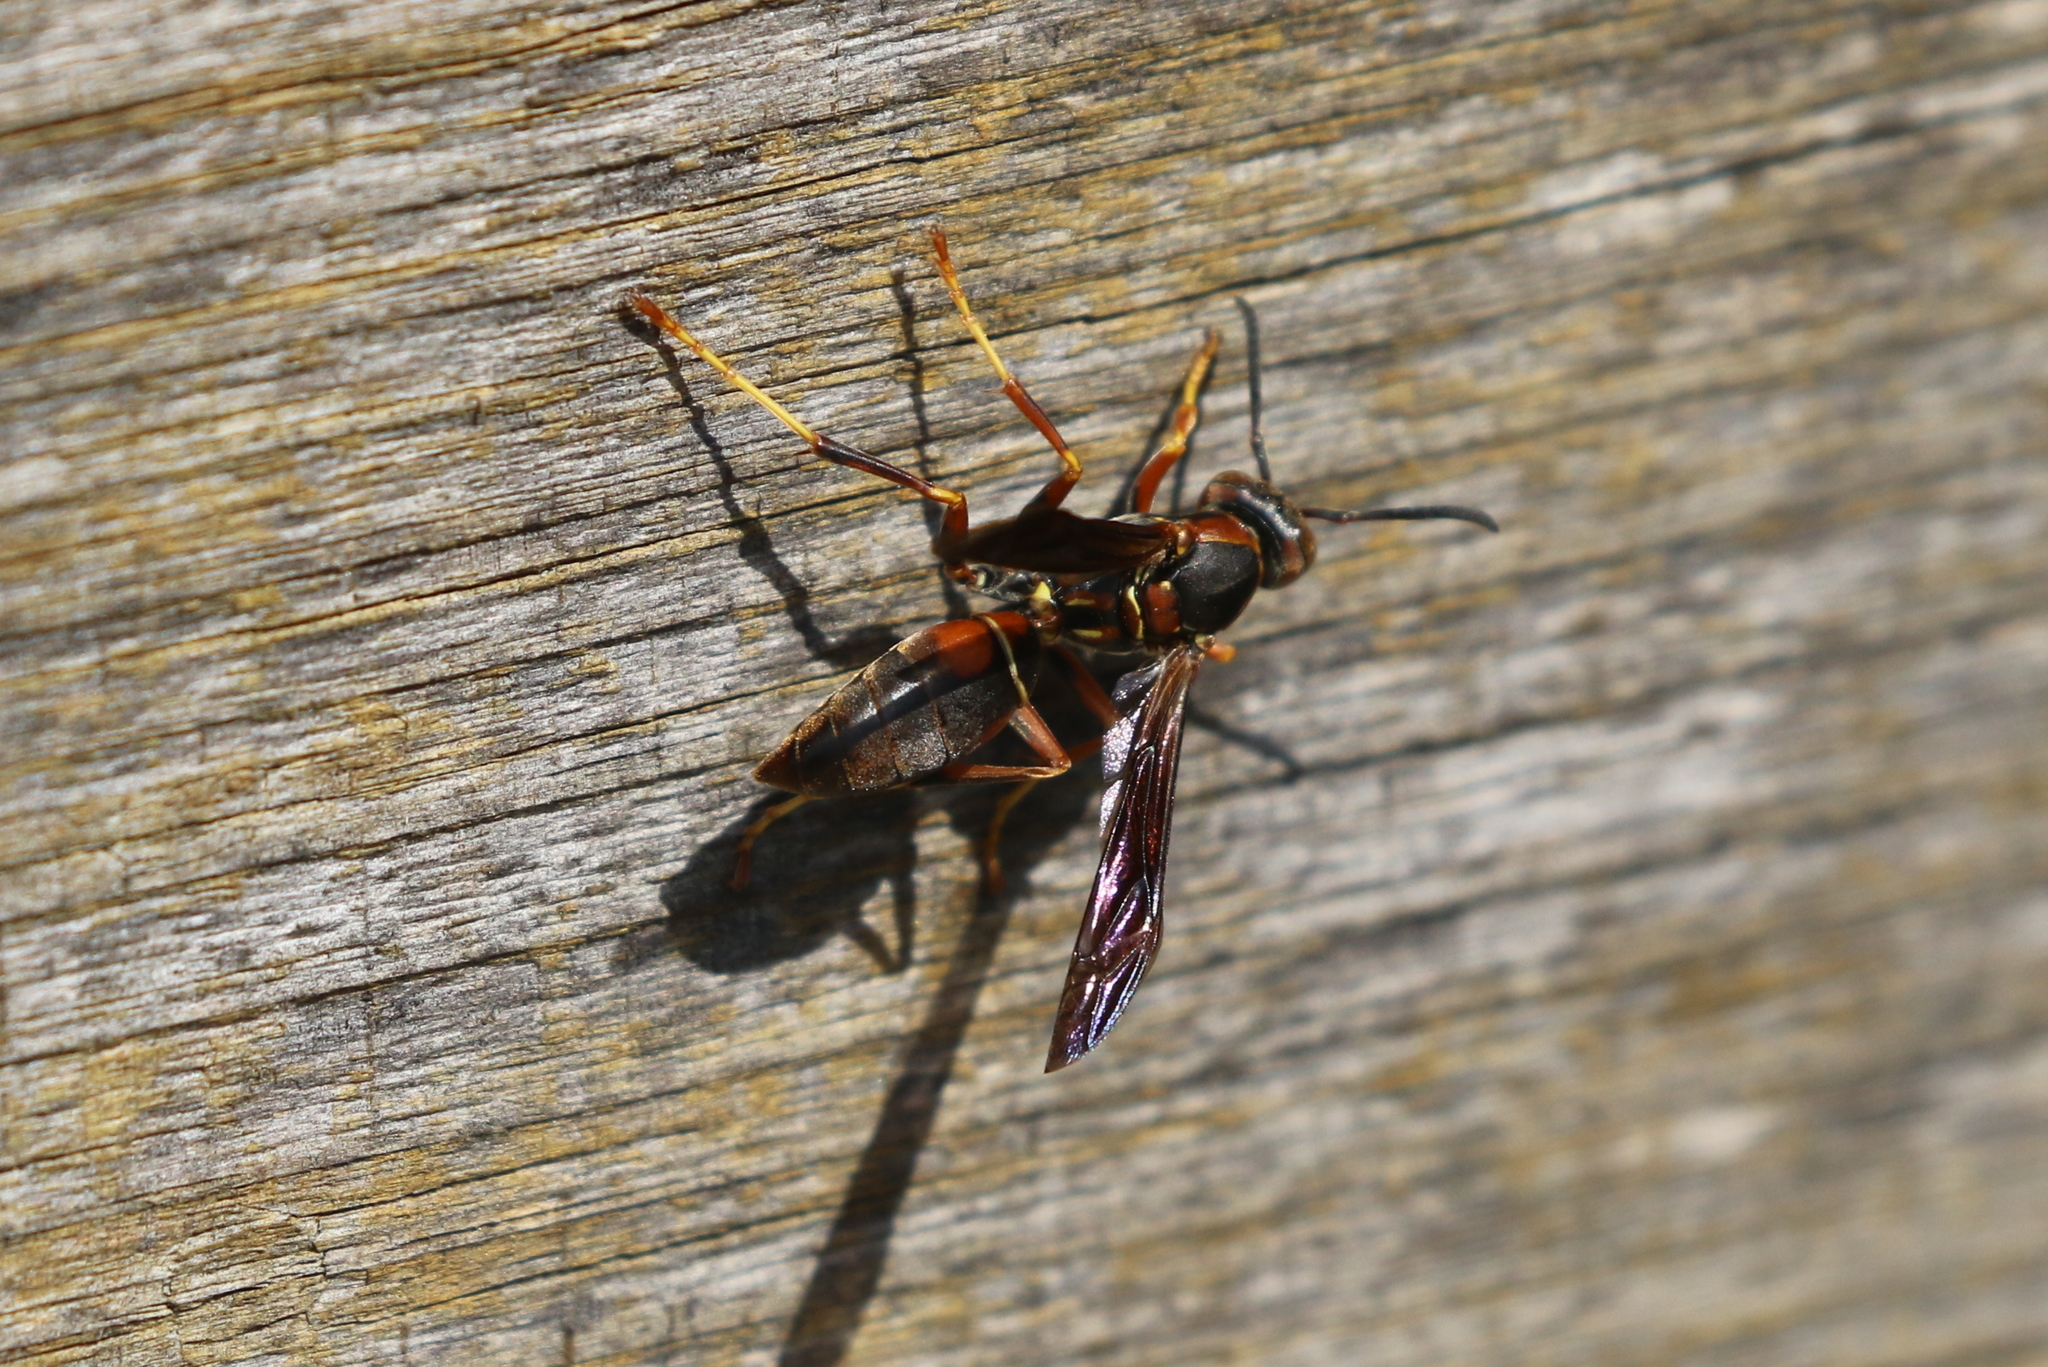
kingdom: Animalia
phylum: Arthropoda
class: Insecta
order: Hymenoptera
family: Eumenidae
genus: Polistes
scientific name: Polistes fuscatus
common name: Dark paper wasp
